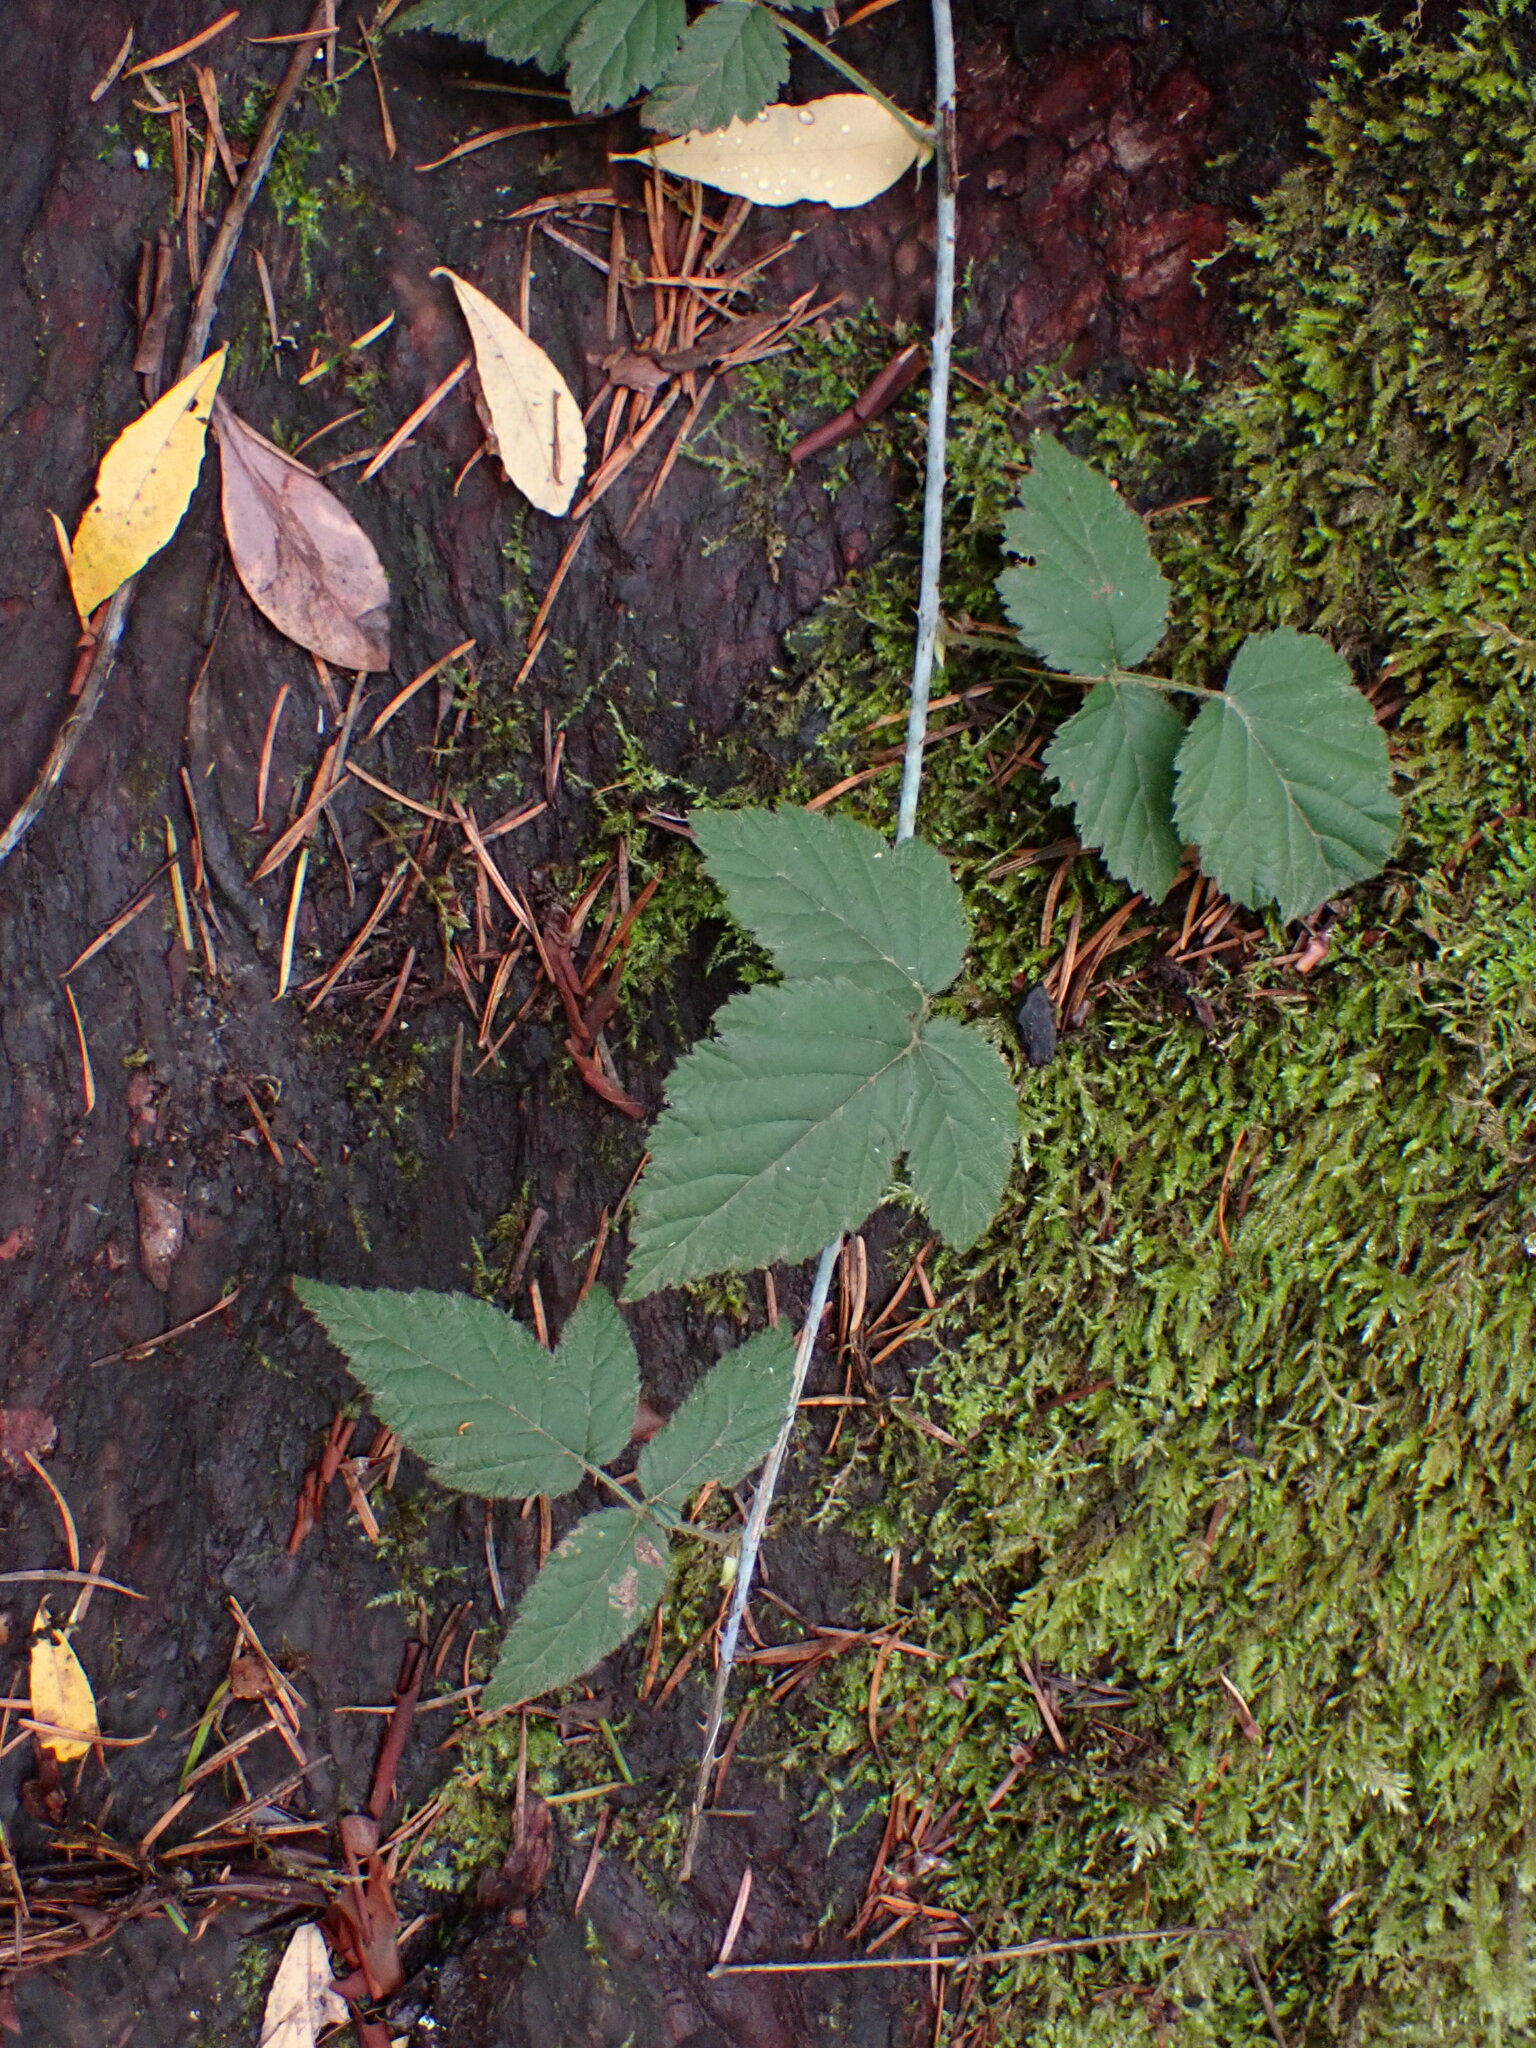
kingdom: Plantae
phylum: Tracheophyta
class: Magnoliopsida
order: Rosales
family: Rosaceae
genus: Rubus
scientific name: Rubus ursinus
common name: Pacific blackberry
